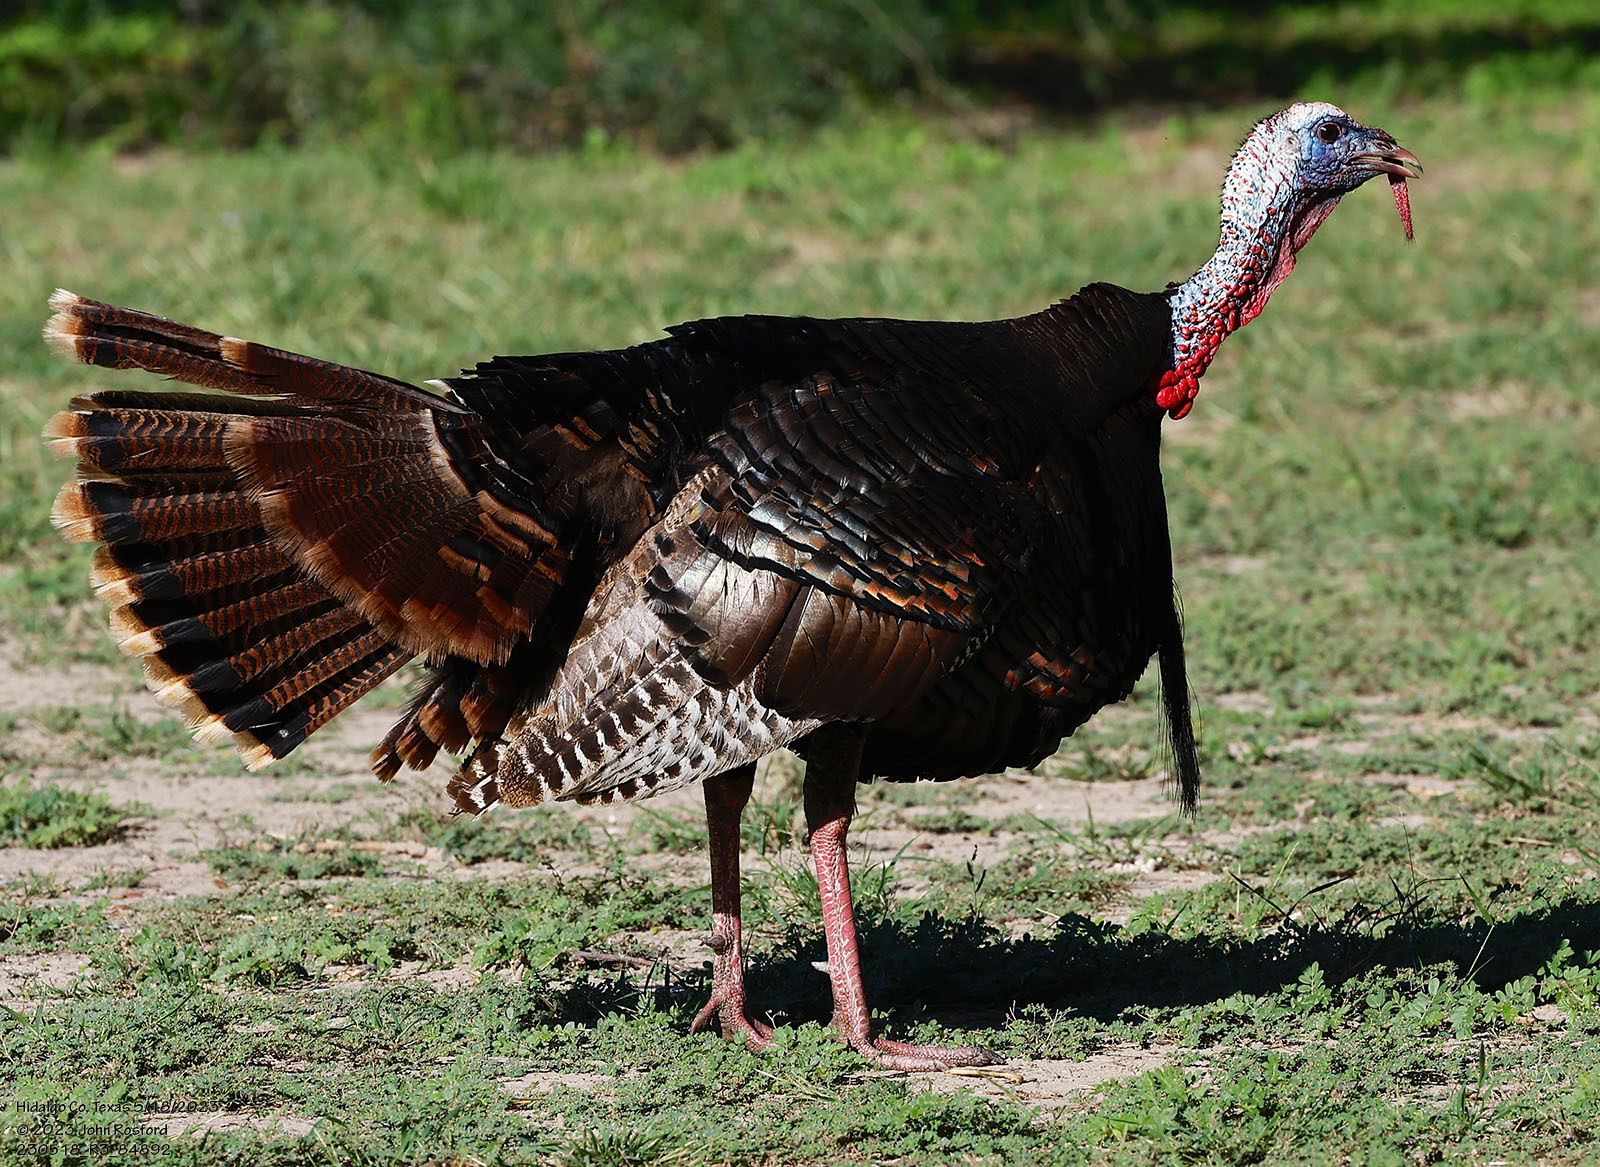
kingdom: Animalia
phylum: Chordata
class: Aves
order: Galliformes
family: Phasianidae
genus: Meleagris
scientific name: Meleagris gallopavo
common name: Wild turkey
